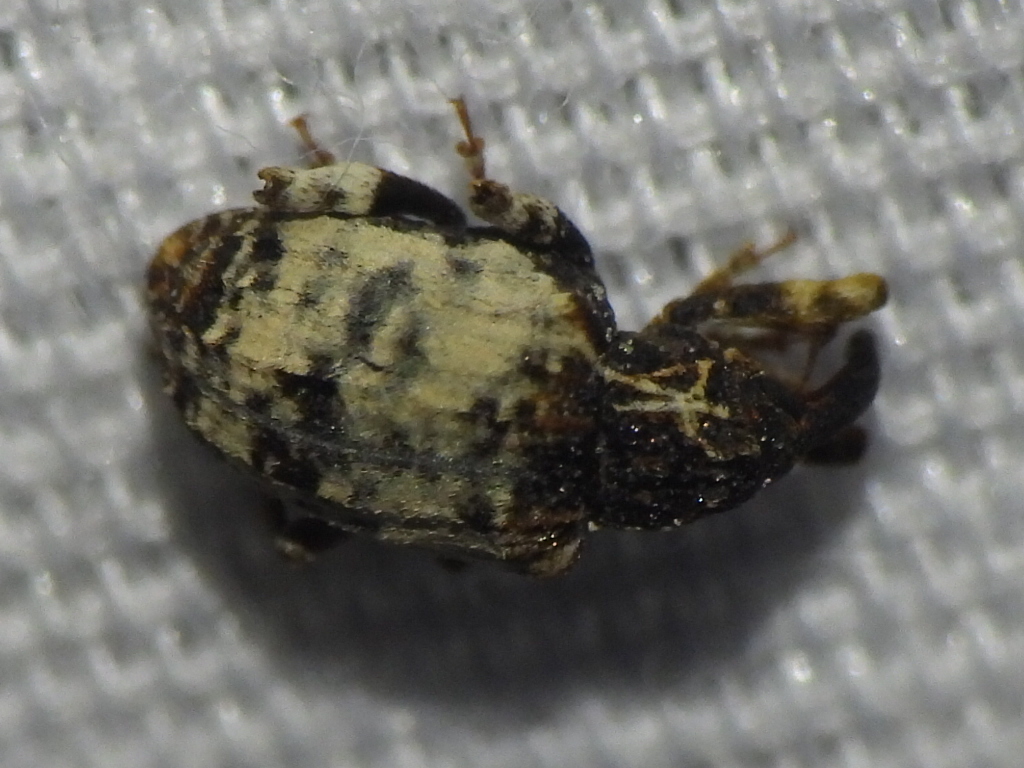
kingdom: Animalia
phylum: Arthropoda
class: Insecta
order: Coleoptera
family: Curculionidae
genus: Conotrachelus
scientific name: Conotrachelus leucophaeatus
